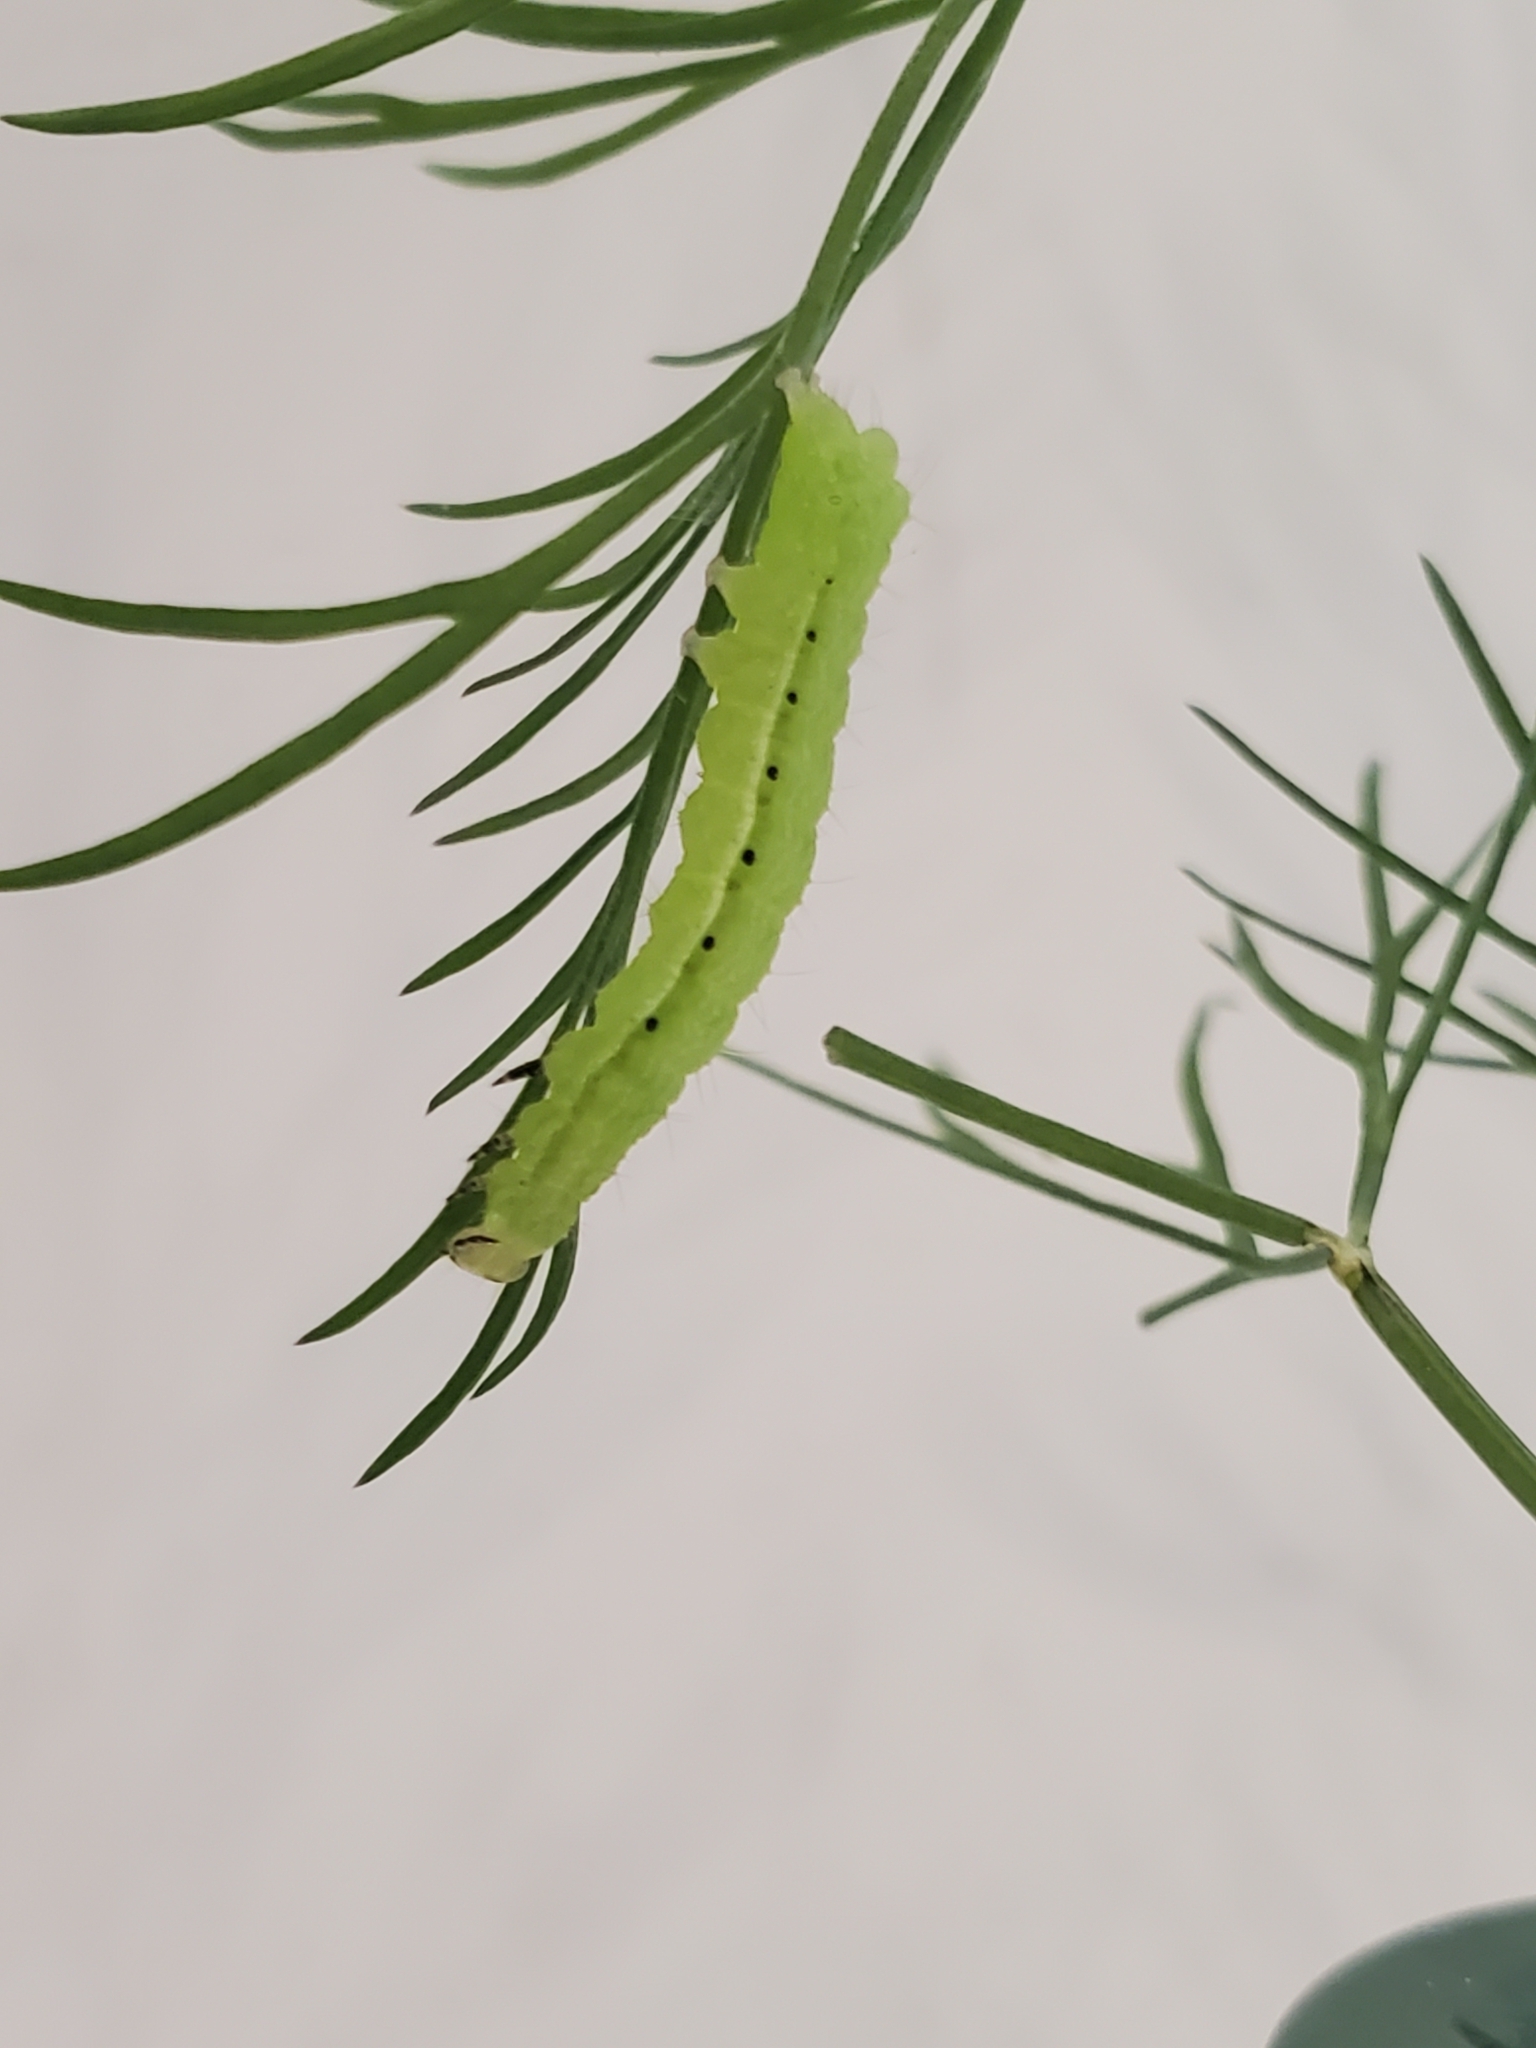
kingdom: Animalia
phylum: Arthropoda
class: Insecta
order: Lepidoptera
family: Noctuidae
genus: Autographa
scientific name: Autographa precationis
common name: Common looper moth
